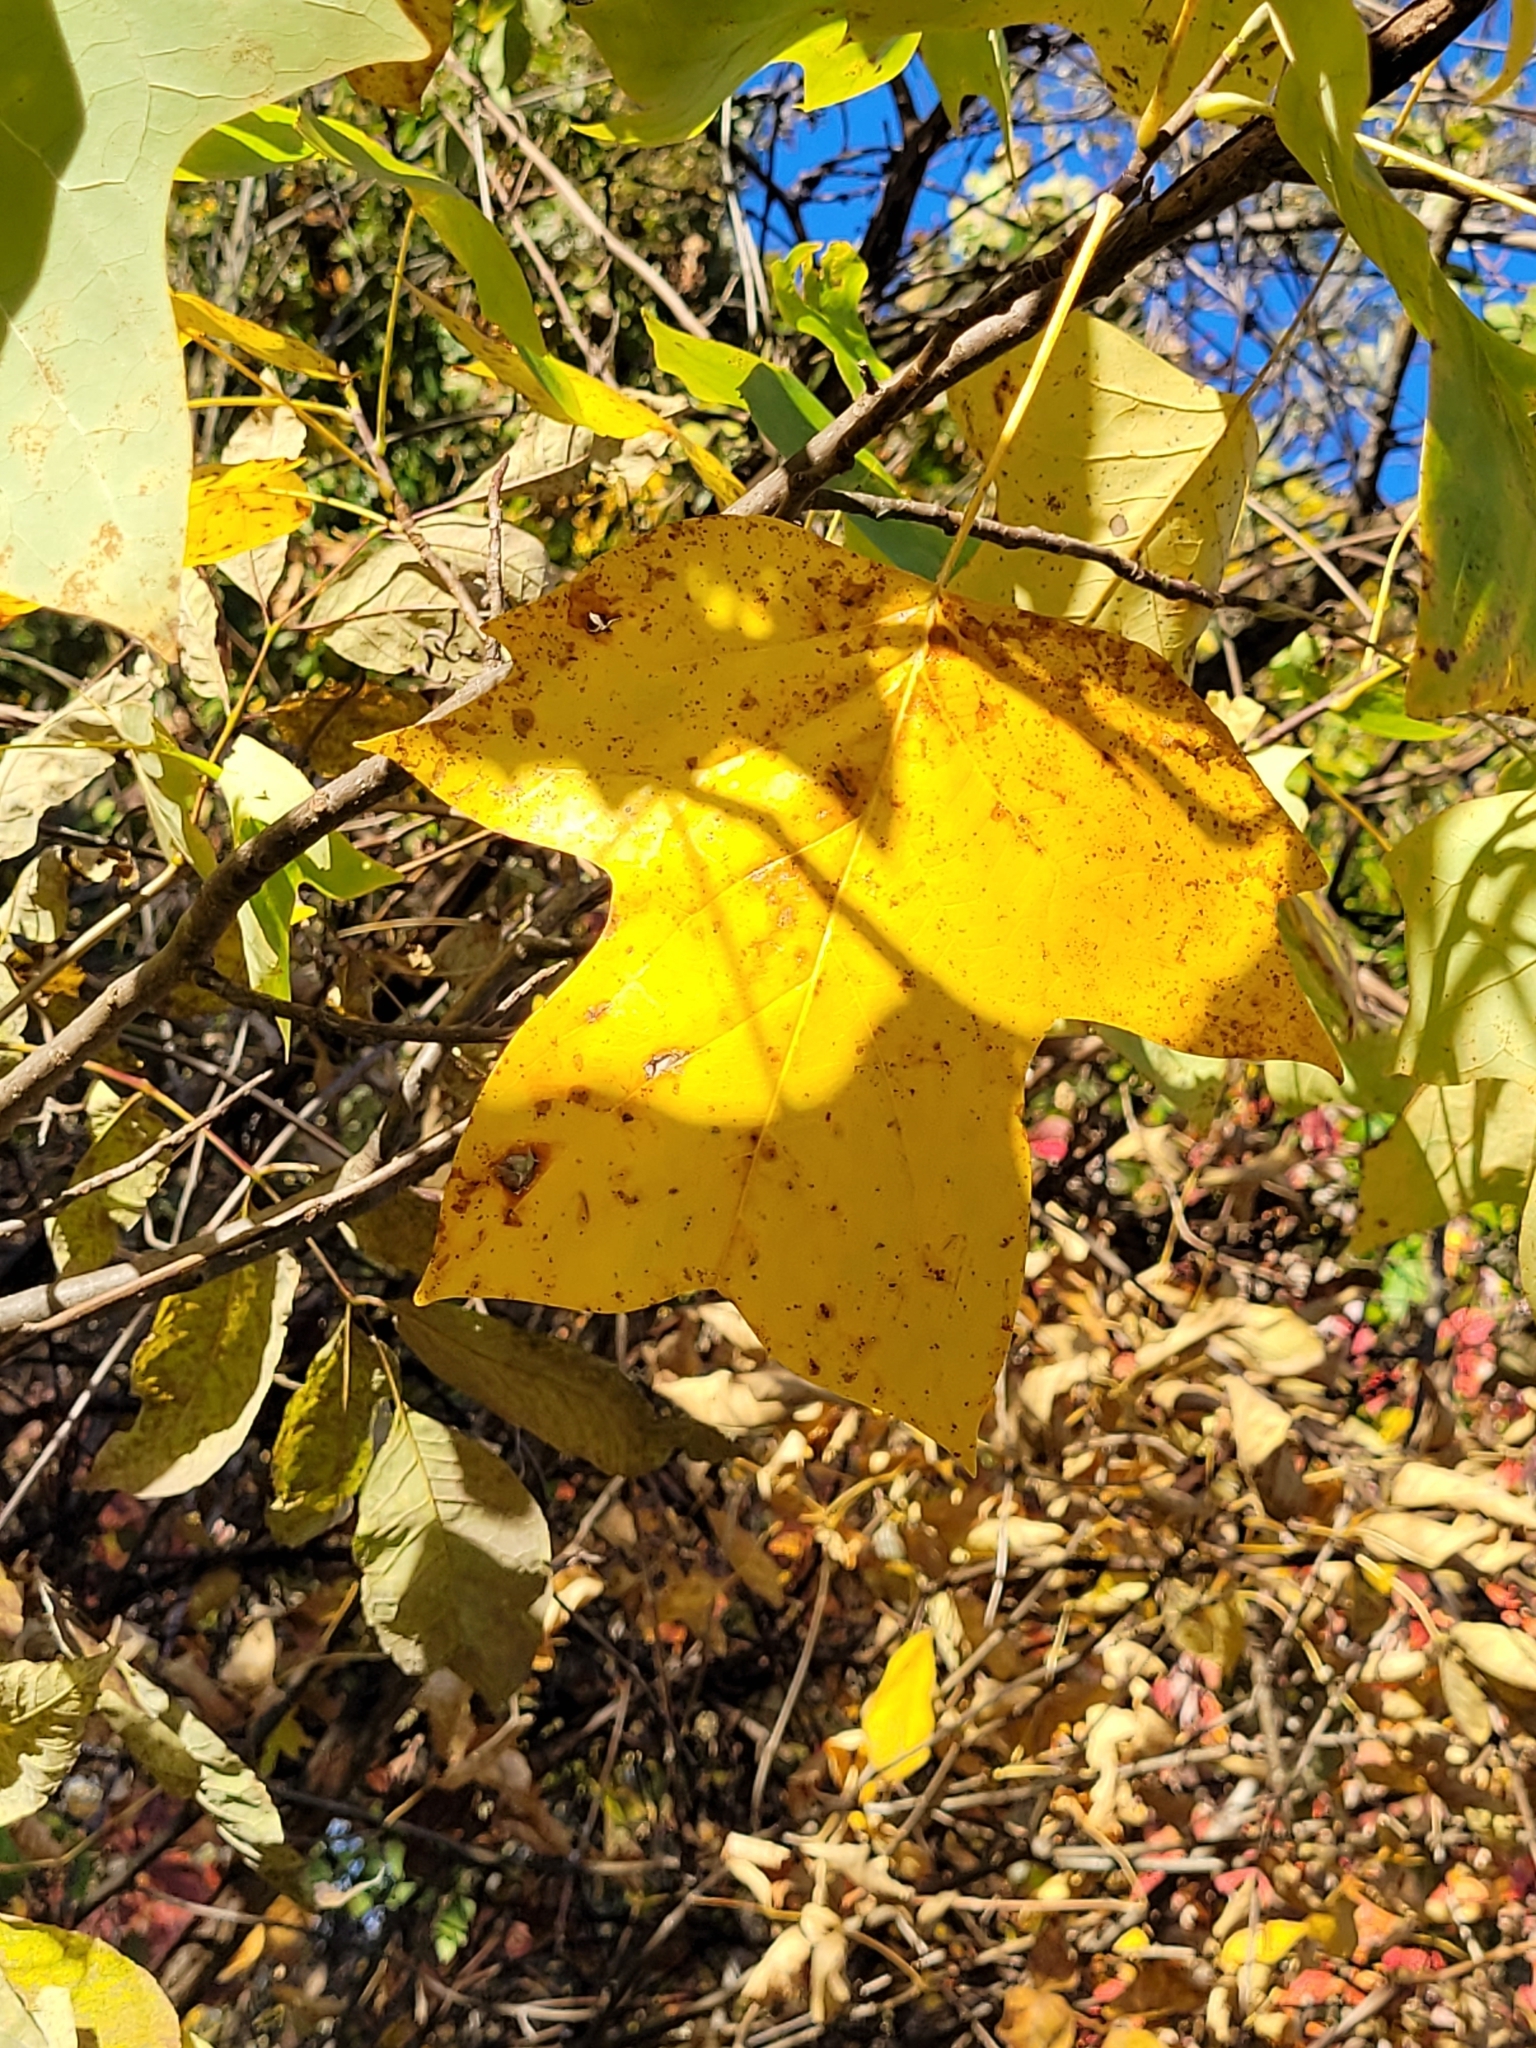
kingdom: Plantae
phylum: Tracheophyta
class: Magnoliopsida
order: Magnoliales
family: Magnoliaceae
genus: Liriodendron
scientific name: Liriodendron tulipifera
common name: Tulip tree
